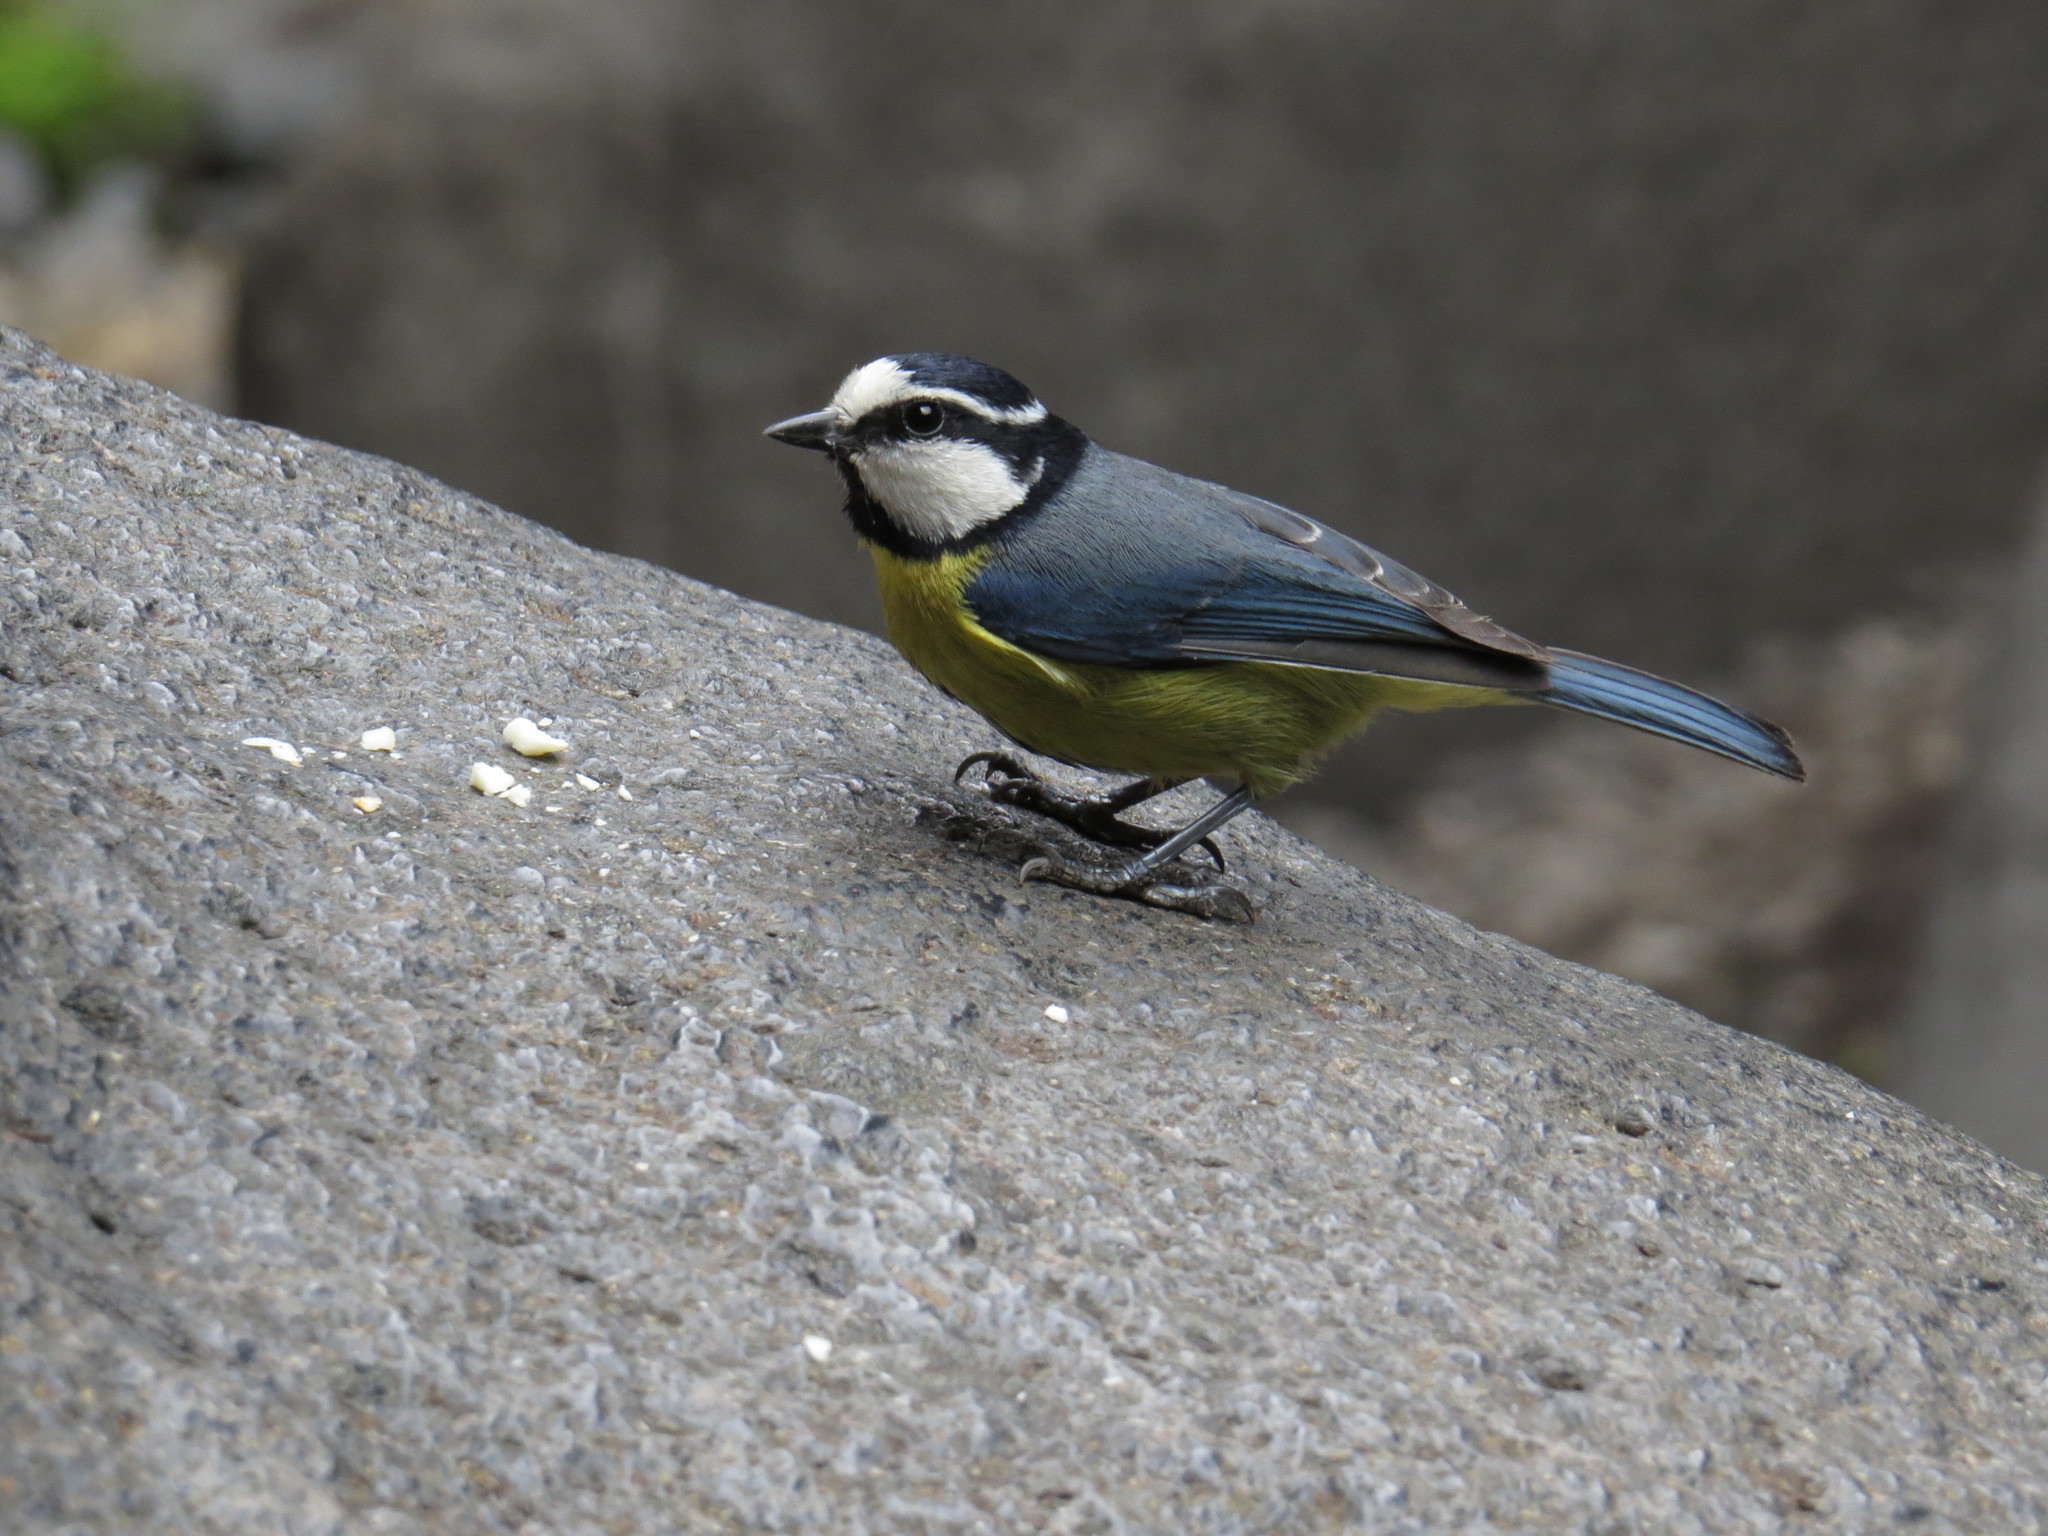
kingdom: Animalia
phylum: Chordata
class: Aves
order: Passeriformes
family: Paridae
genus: Cyanistes
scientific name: Cyanistes teneriffae
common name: African blue tit
